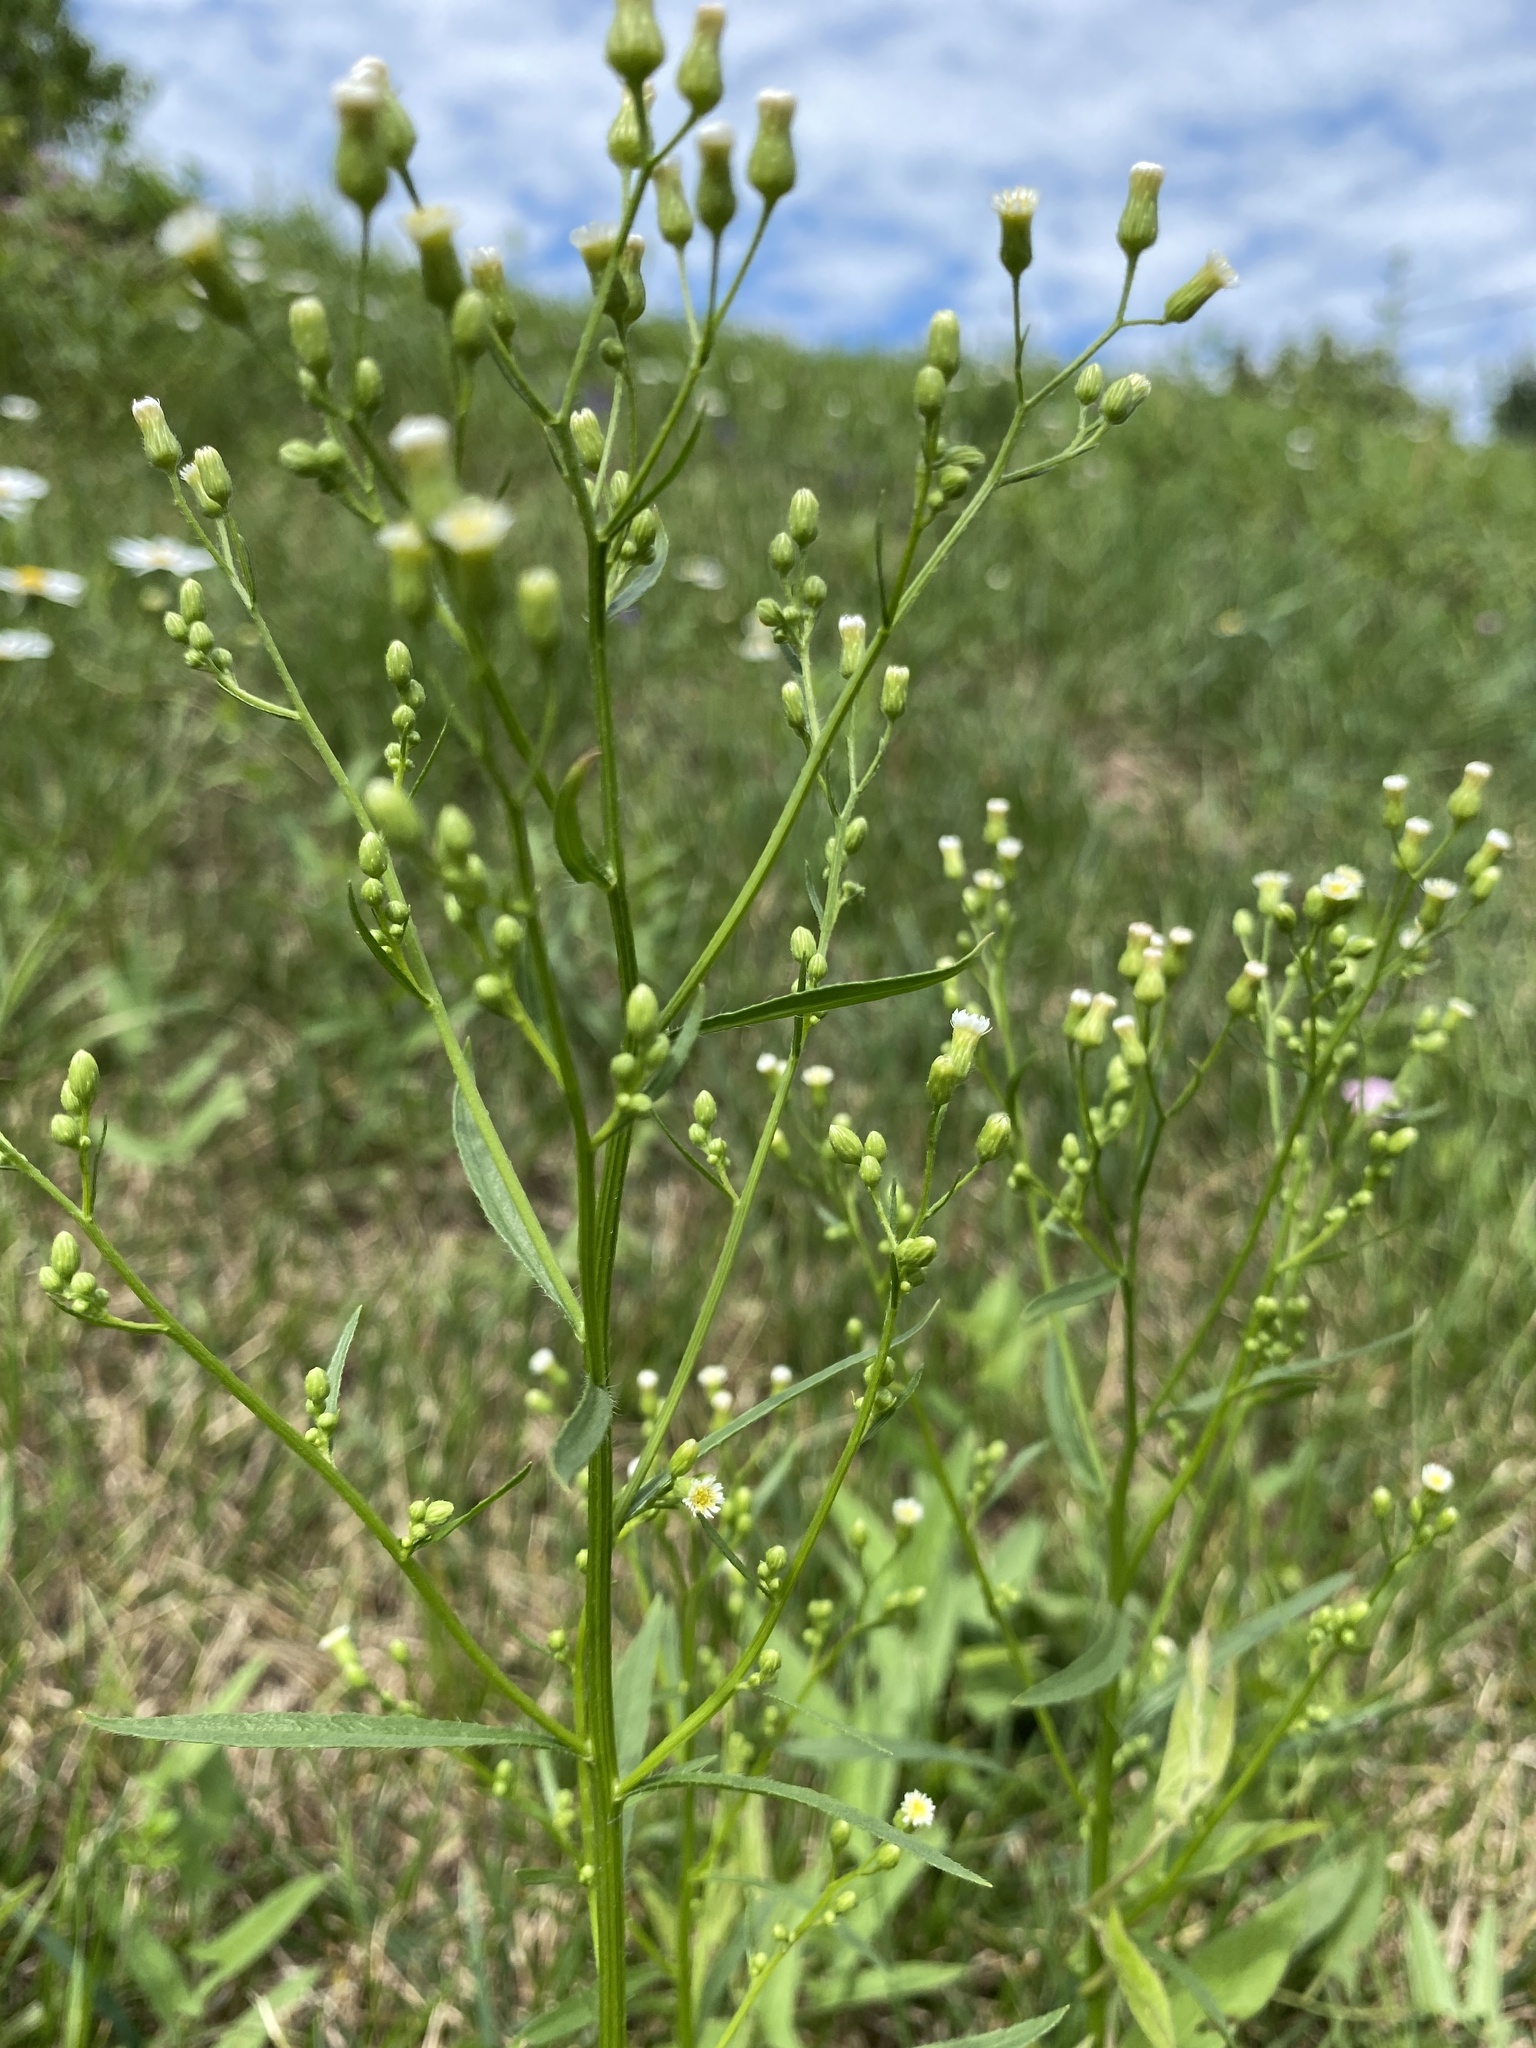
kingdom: Plantae
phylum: Tracheophyta
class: Magnoliopsida
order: Asterales
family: Asteraceae
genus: Erigeron
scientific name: Erigeron canadensis
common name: Canadian fleabane
